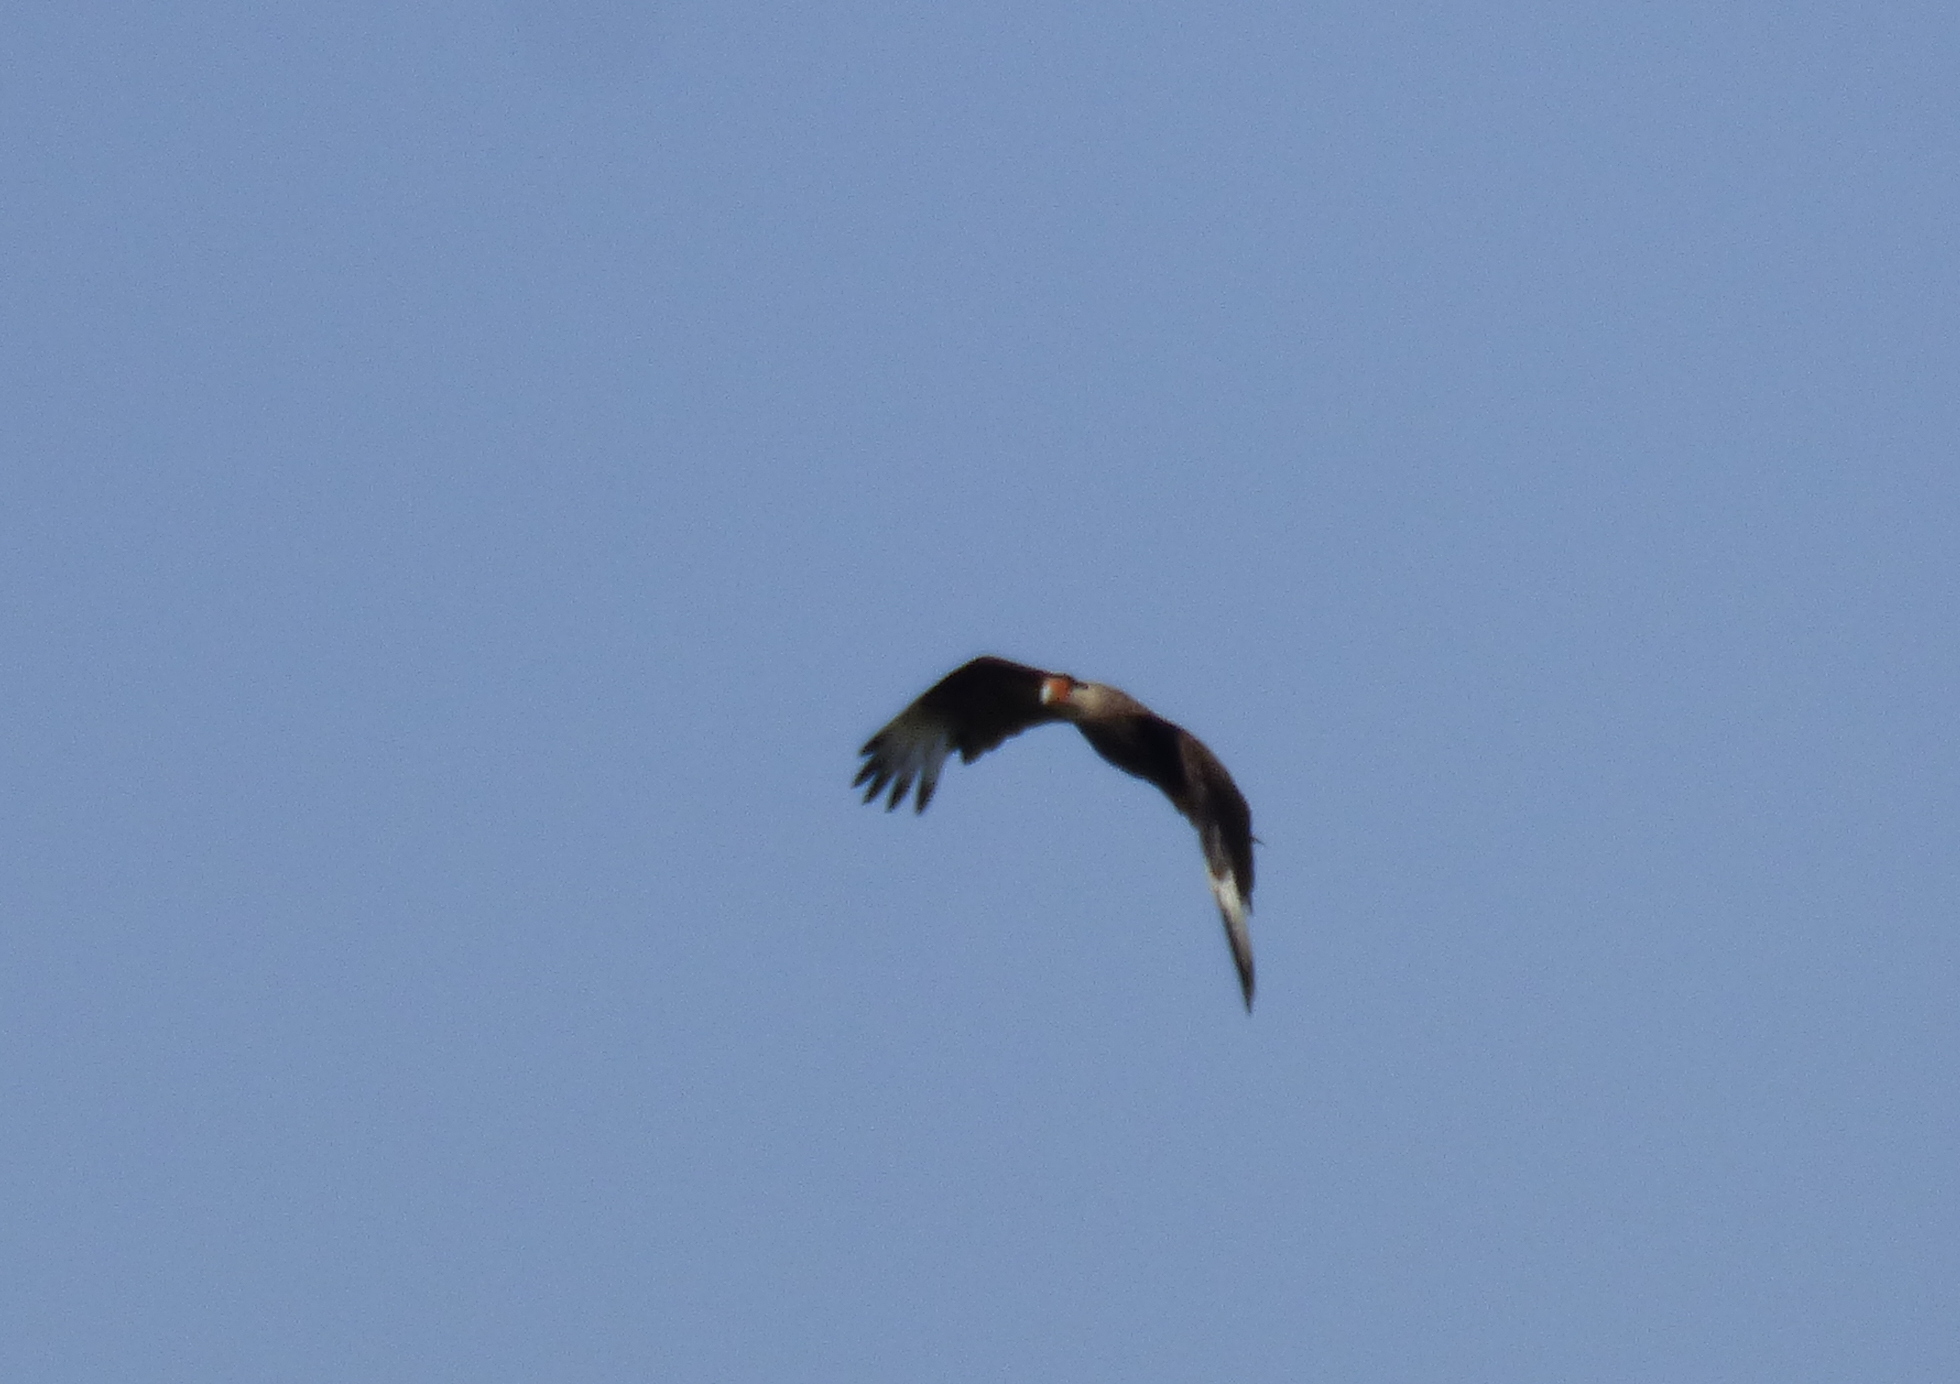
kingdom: Animalia
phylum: Chordata
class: Aves
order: Falconiformes
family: Falconidae
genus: Caracara
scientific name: Caracara plancus
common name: Southern caracara
